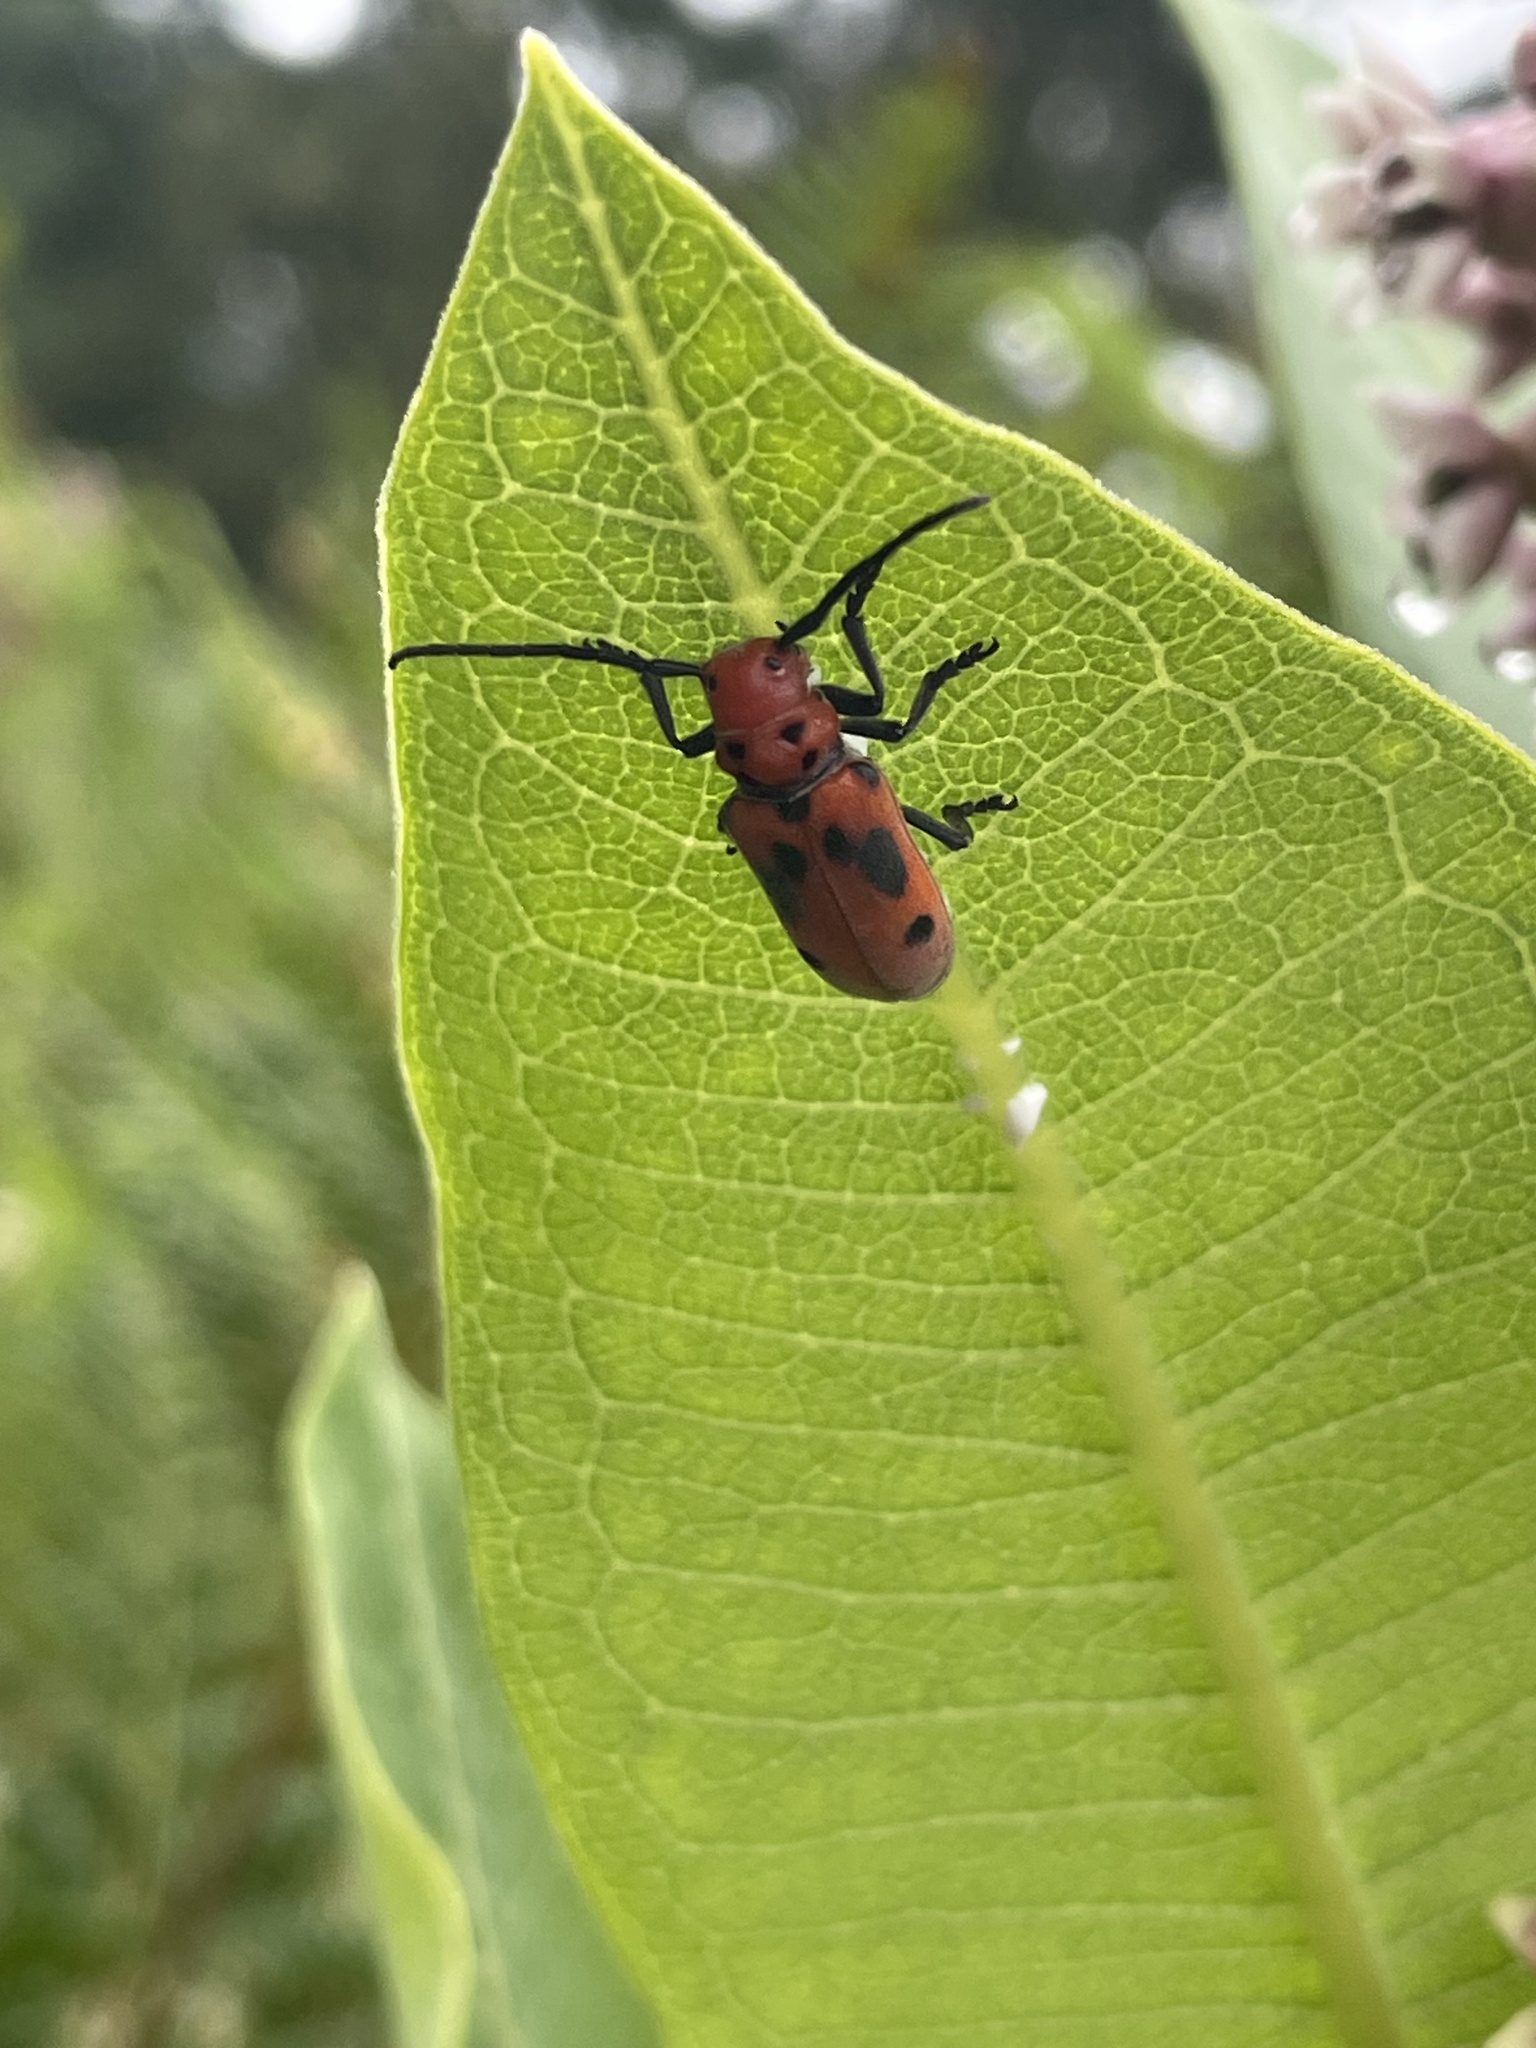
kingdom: Animalia
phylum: Arthropoda
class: Insecta
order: Coleoptera
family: Cerambycidae
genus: Tetraopes
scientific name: Tetraopes tetrophthalmus
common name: Red milkweed beetle
